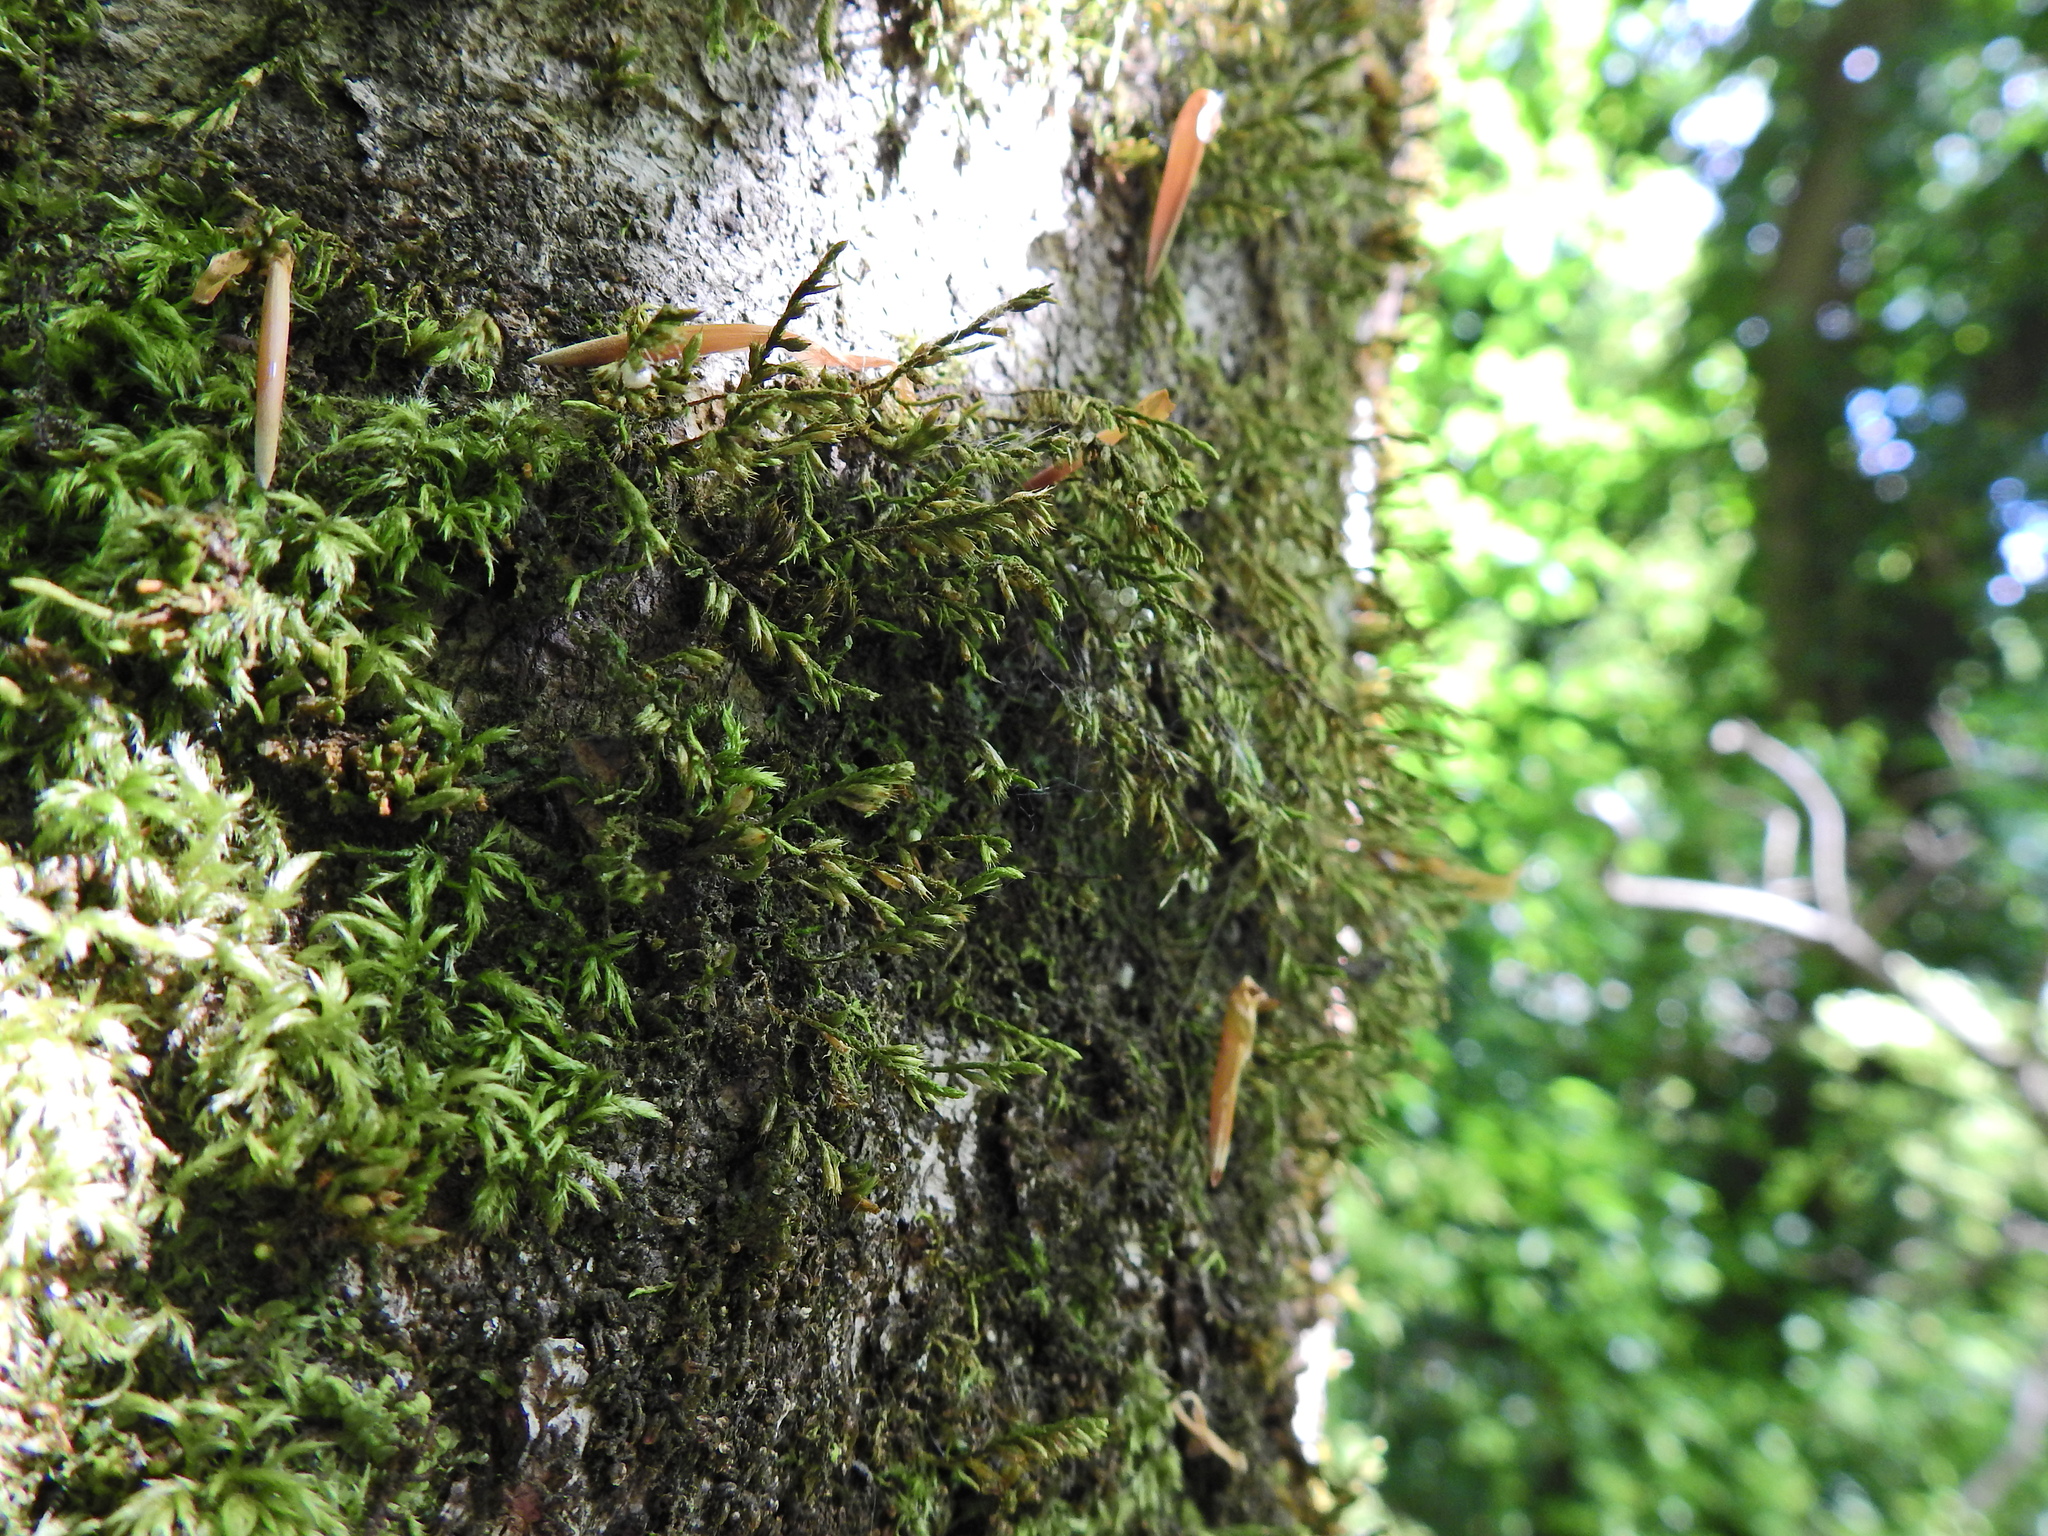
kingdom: Plantae
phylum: Bryophyta
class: Bryopsida
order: Hypnales
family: Cryphaeaceae
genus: Cryphaea
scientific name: Cryphaea heteromalla
